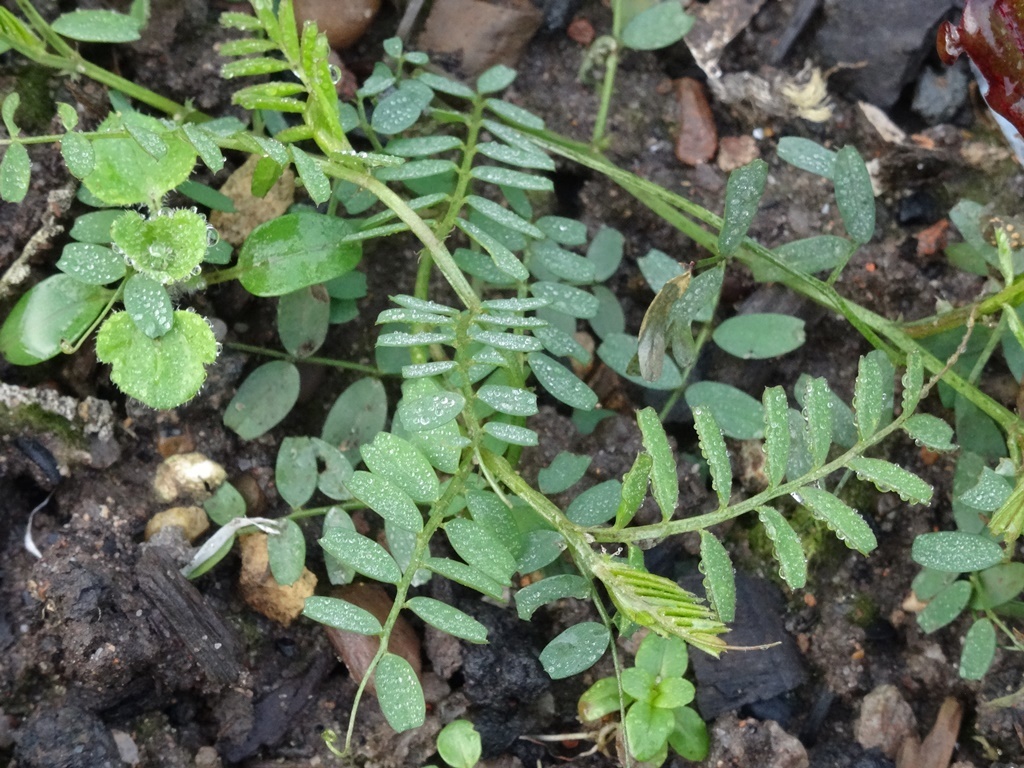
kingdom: Plantae
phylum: Tracheophyta
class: Magnoliopsida
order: Fabales
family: Fabaceae
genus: Vicia
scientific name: Vicia sativa
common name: Garden vetch
